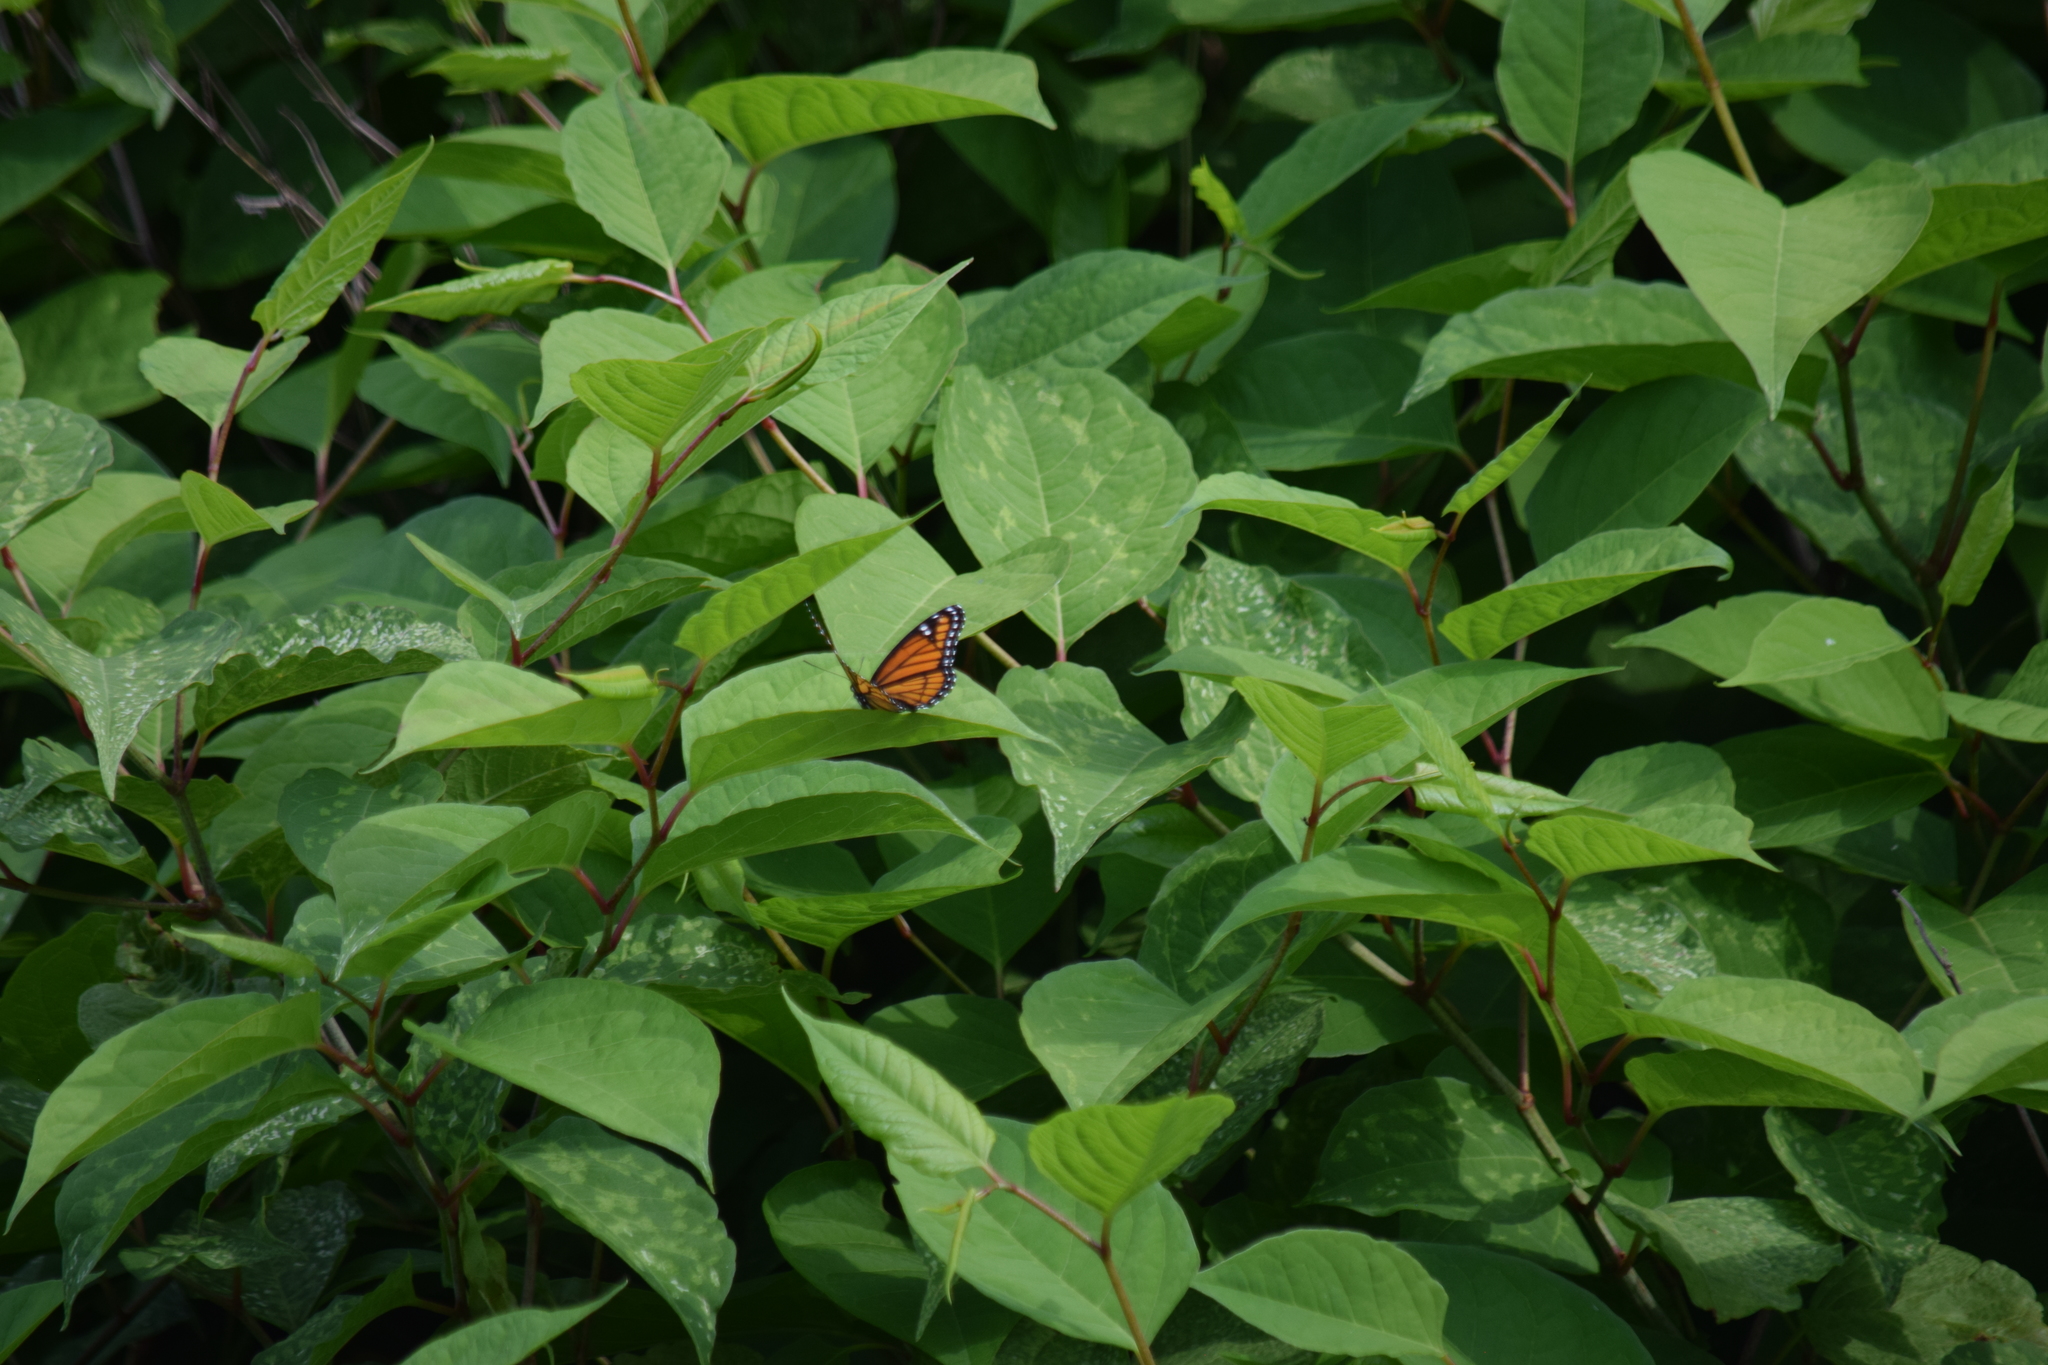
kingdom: Animalia
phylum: Arthropoda
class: Insecta
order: Lepidoptera
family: Nymphalidae
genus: Limenitis
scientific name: Limenitis archippus
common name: Viceroy
